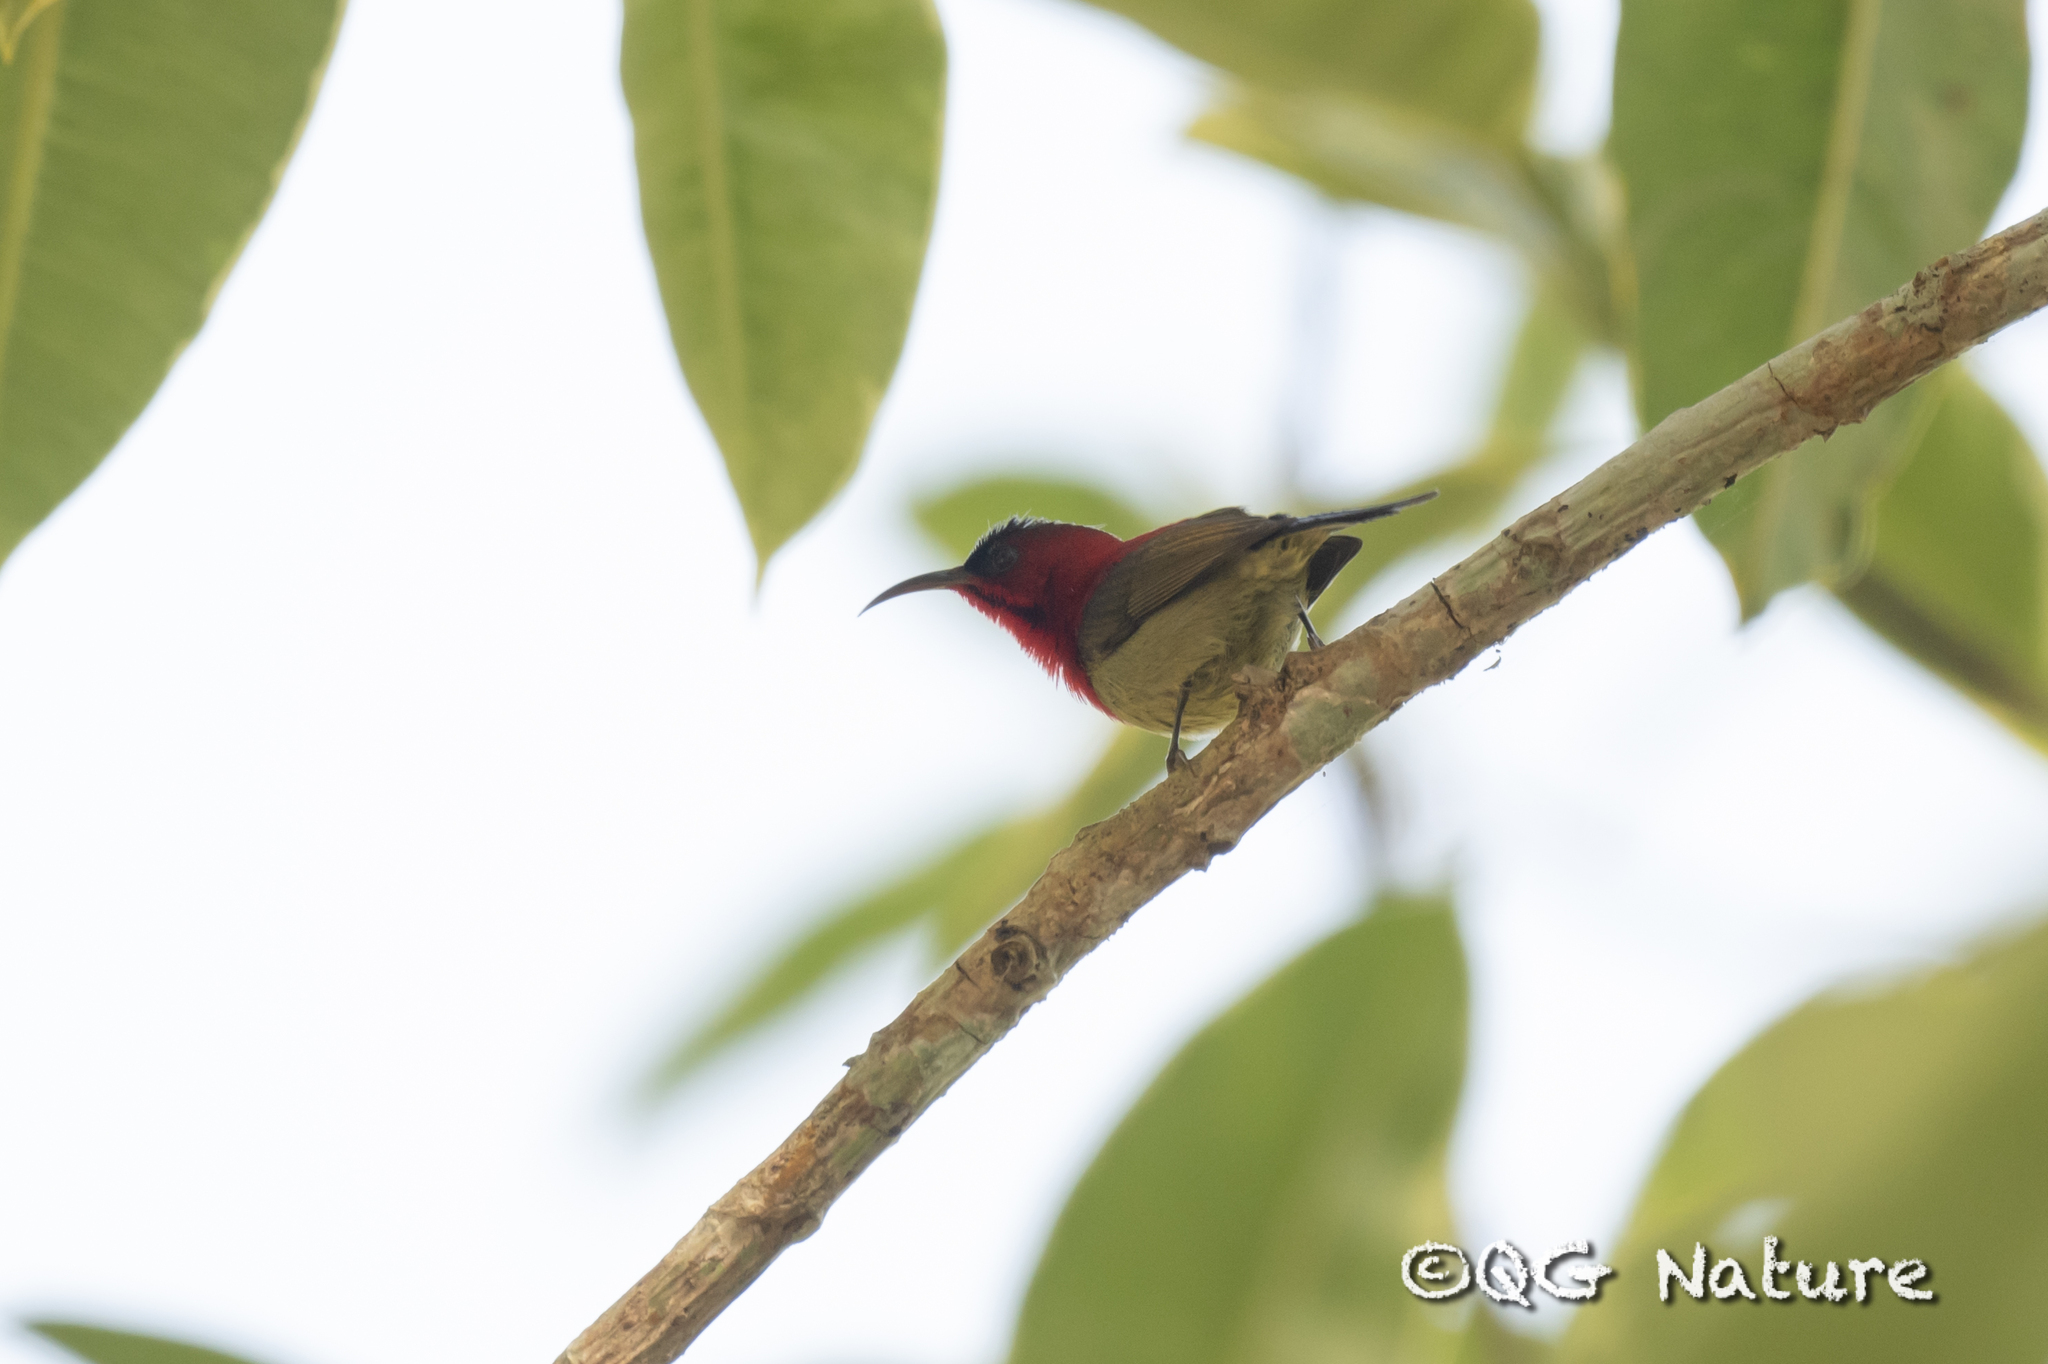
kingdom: Animalia
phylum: Chordata
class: Aves
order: Passeriformes
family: Nectariniidae
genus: Aethopyga
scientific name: Aethopyga siparaja
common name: Crimson sunbird
